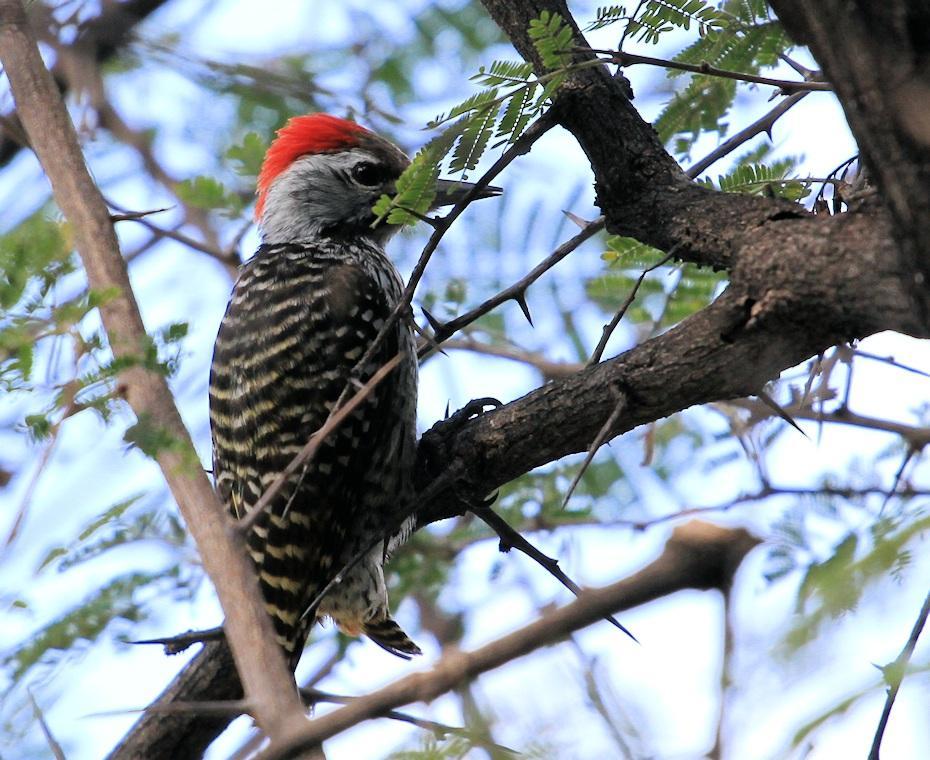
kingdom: Animalia
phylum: Chordata
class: Aves
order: Piciformes
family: Picidae
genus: Dendropicos
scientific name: Dendropicos fuscescens
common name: Cardinal woodpecker
